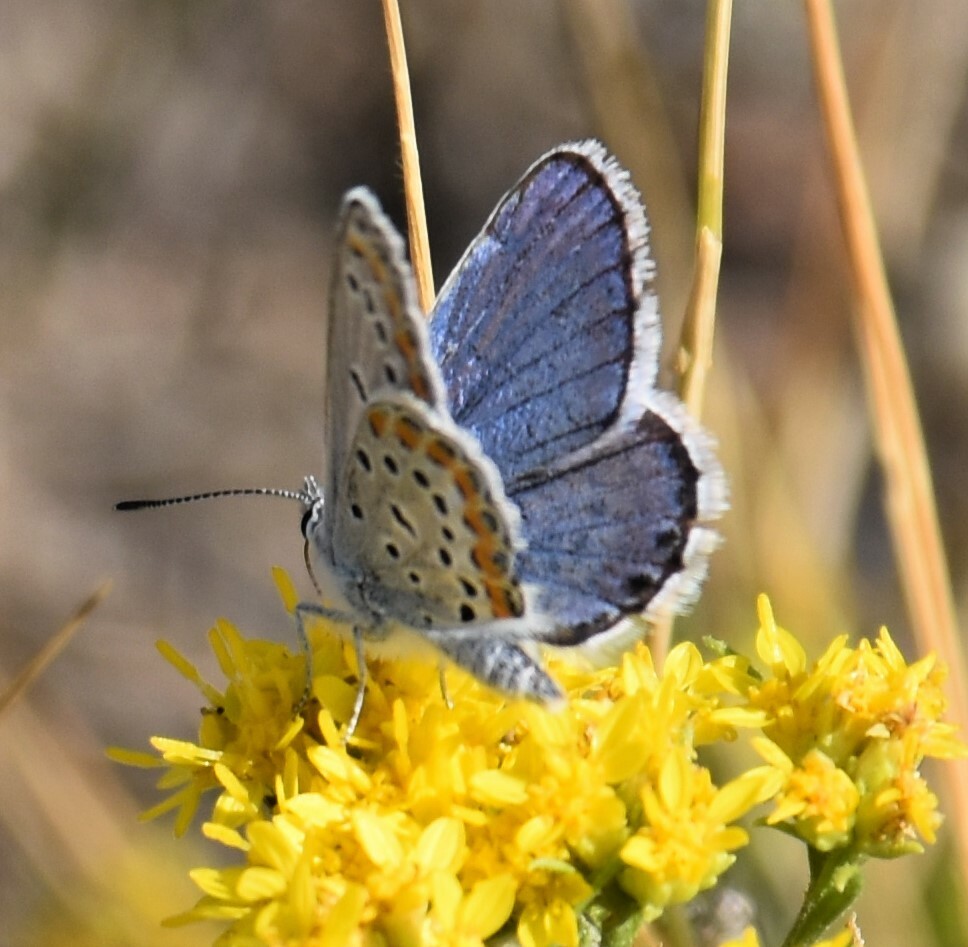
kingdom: Animalia
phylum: Arthropoda
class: Insecta
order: Lepidoptera
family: Lycaenidae
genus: Lycaeides
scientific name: Lycaeides melissa
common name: Melissa blue
